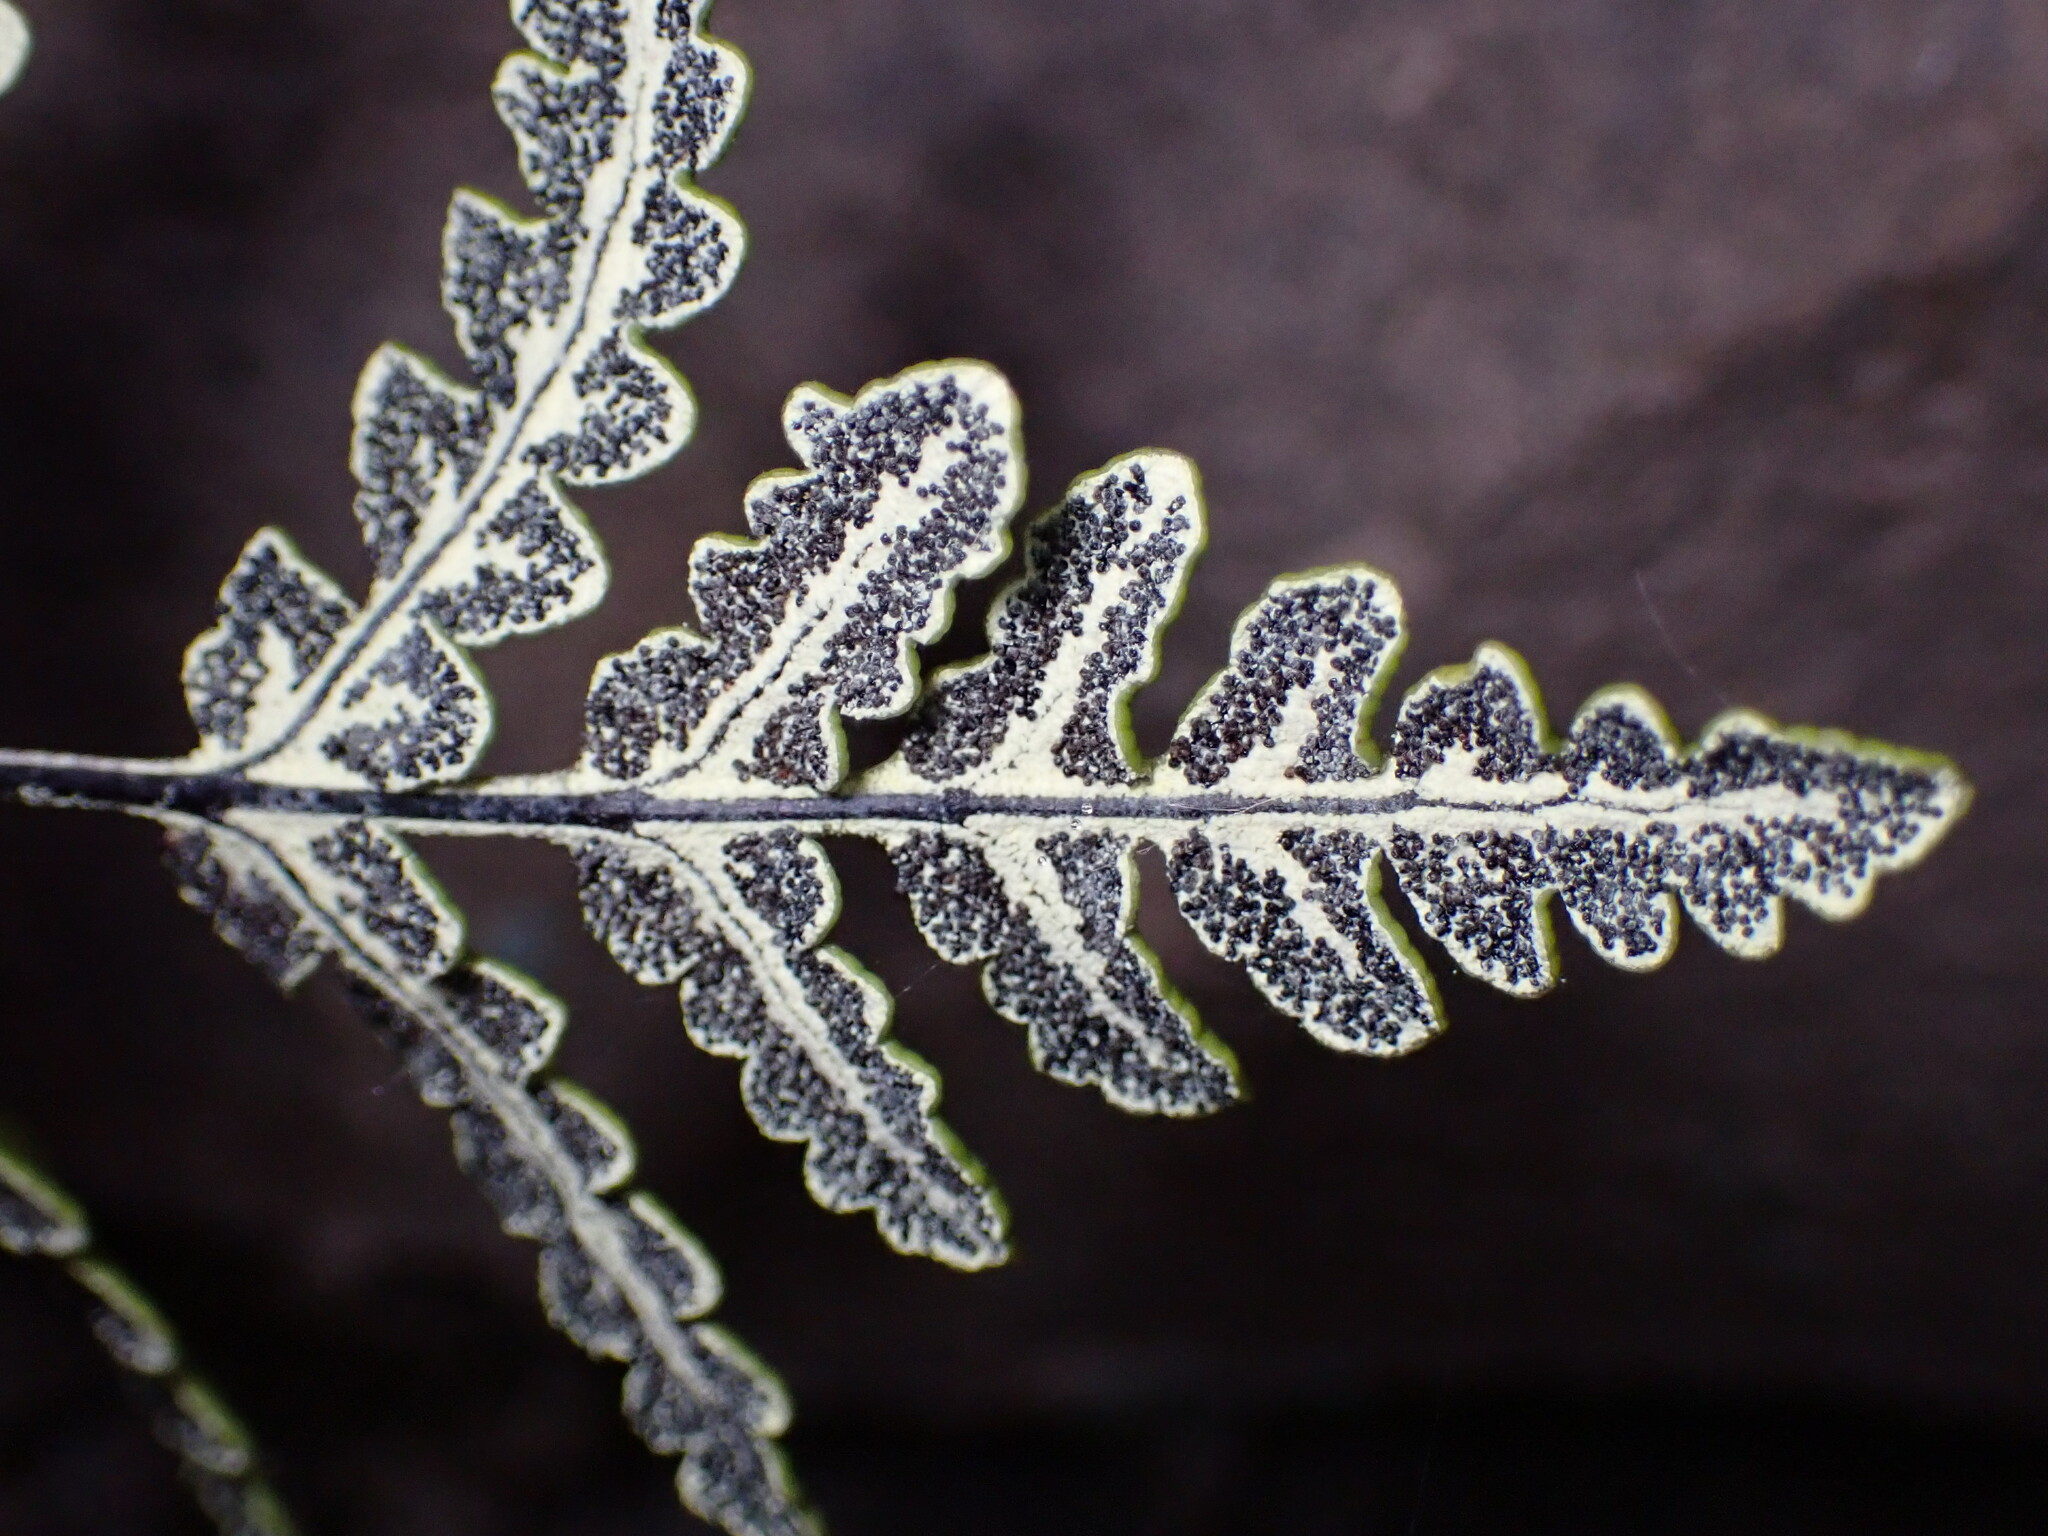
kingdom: Plantae
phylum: Tracheophyta
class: Polypodiopsida
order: Polypodiales
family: Pteridaceae
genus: Pentagramma
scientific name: Pentagramma triangularis
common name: Gold fern
